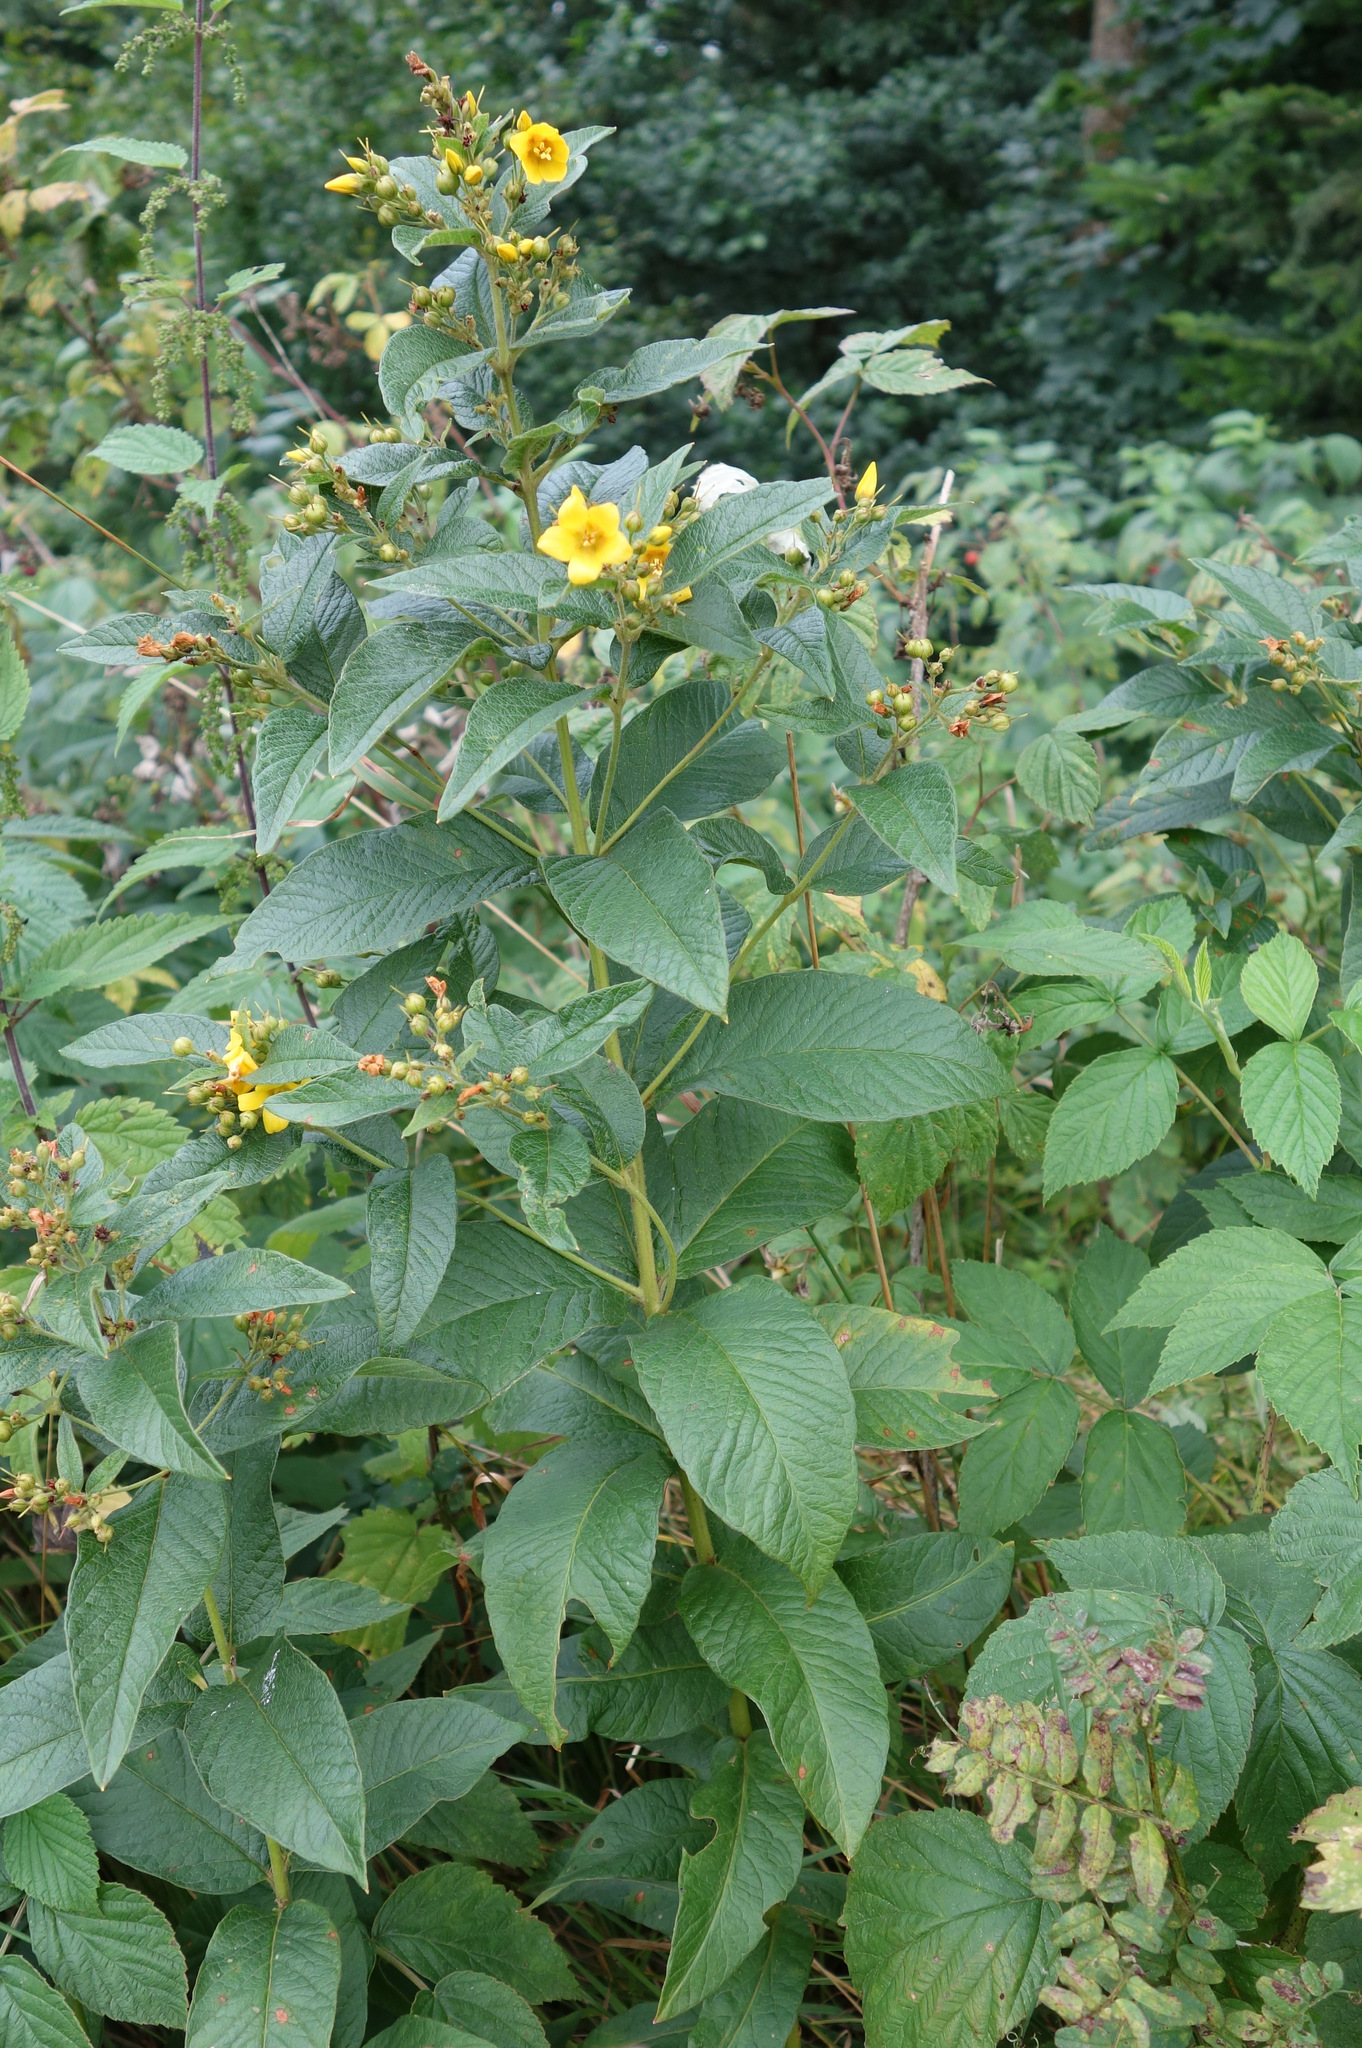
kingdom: Plantae
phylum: Tracheophyta
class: Magnoliopsida
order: Ericales
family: Primulaceae
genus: Lysimachia
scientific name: Lysimachia vulgaris
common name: Yellow loosestrife
